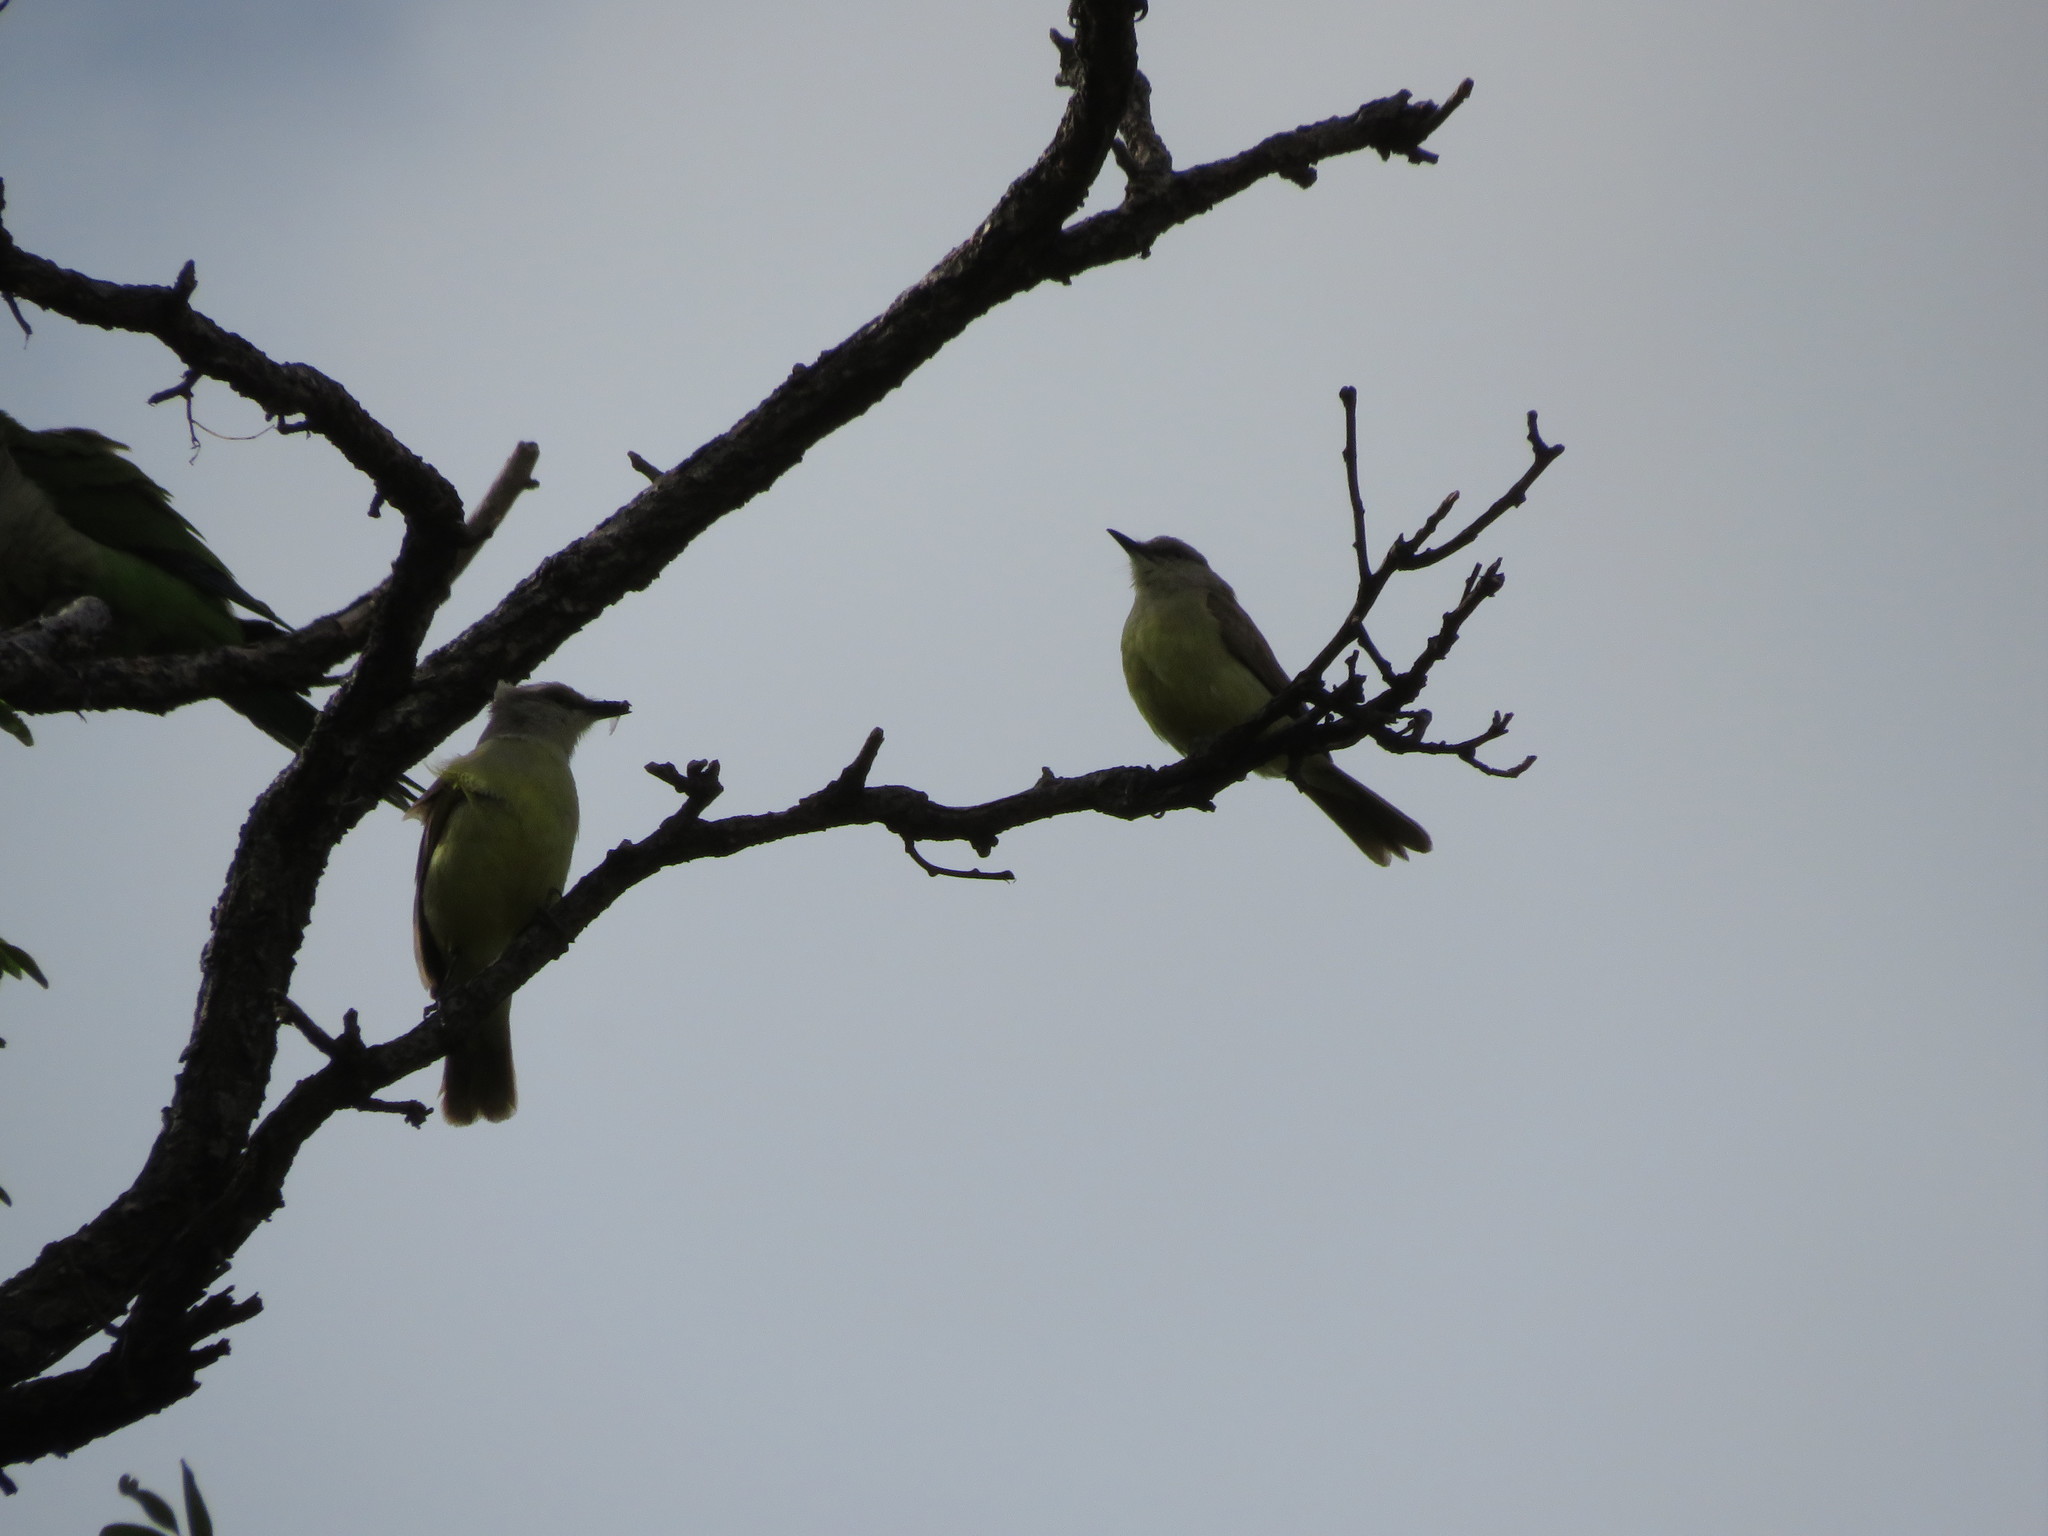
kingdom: Animalia
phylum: Chordata
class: Aves
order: Passeriformes
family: Tyrannidae
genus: Machetornis
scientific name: Machetornis rixosa
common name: Cattle tyrant
